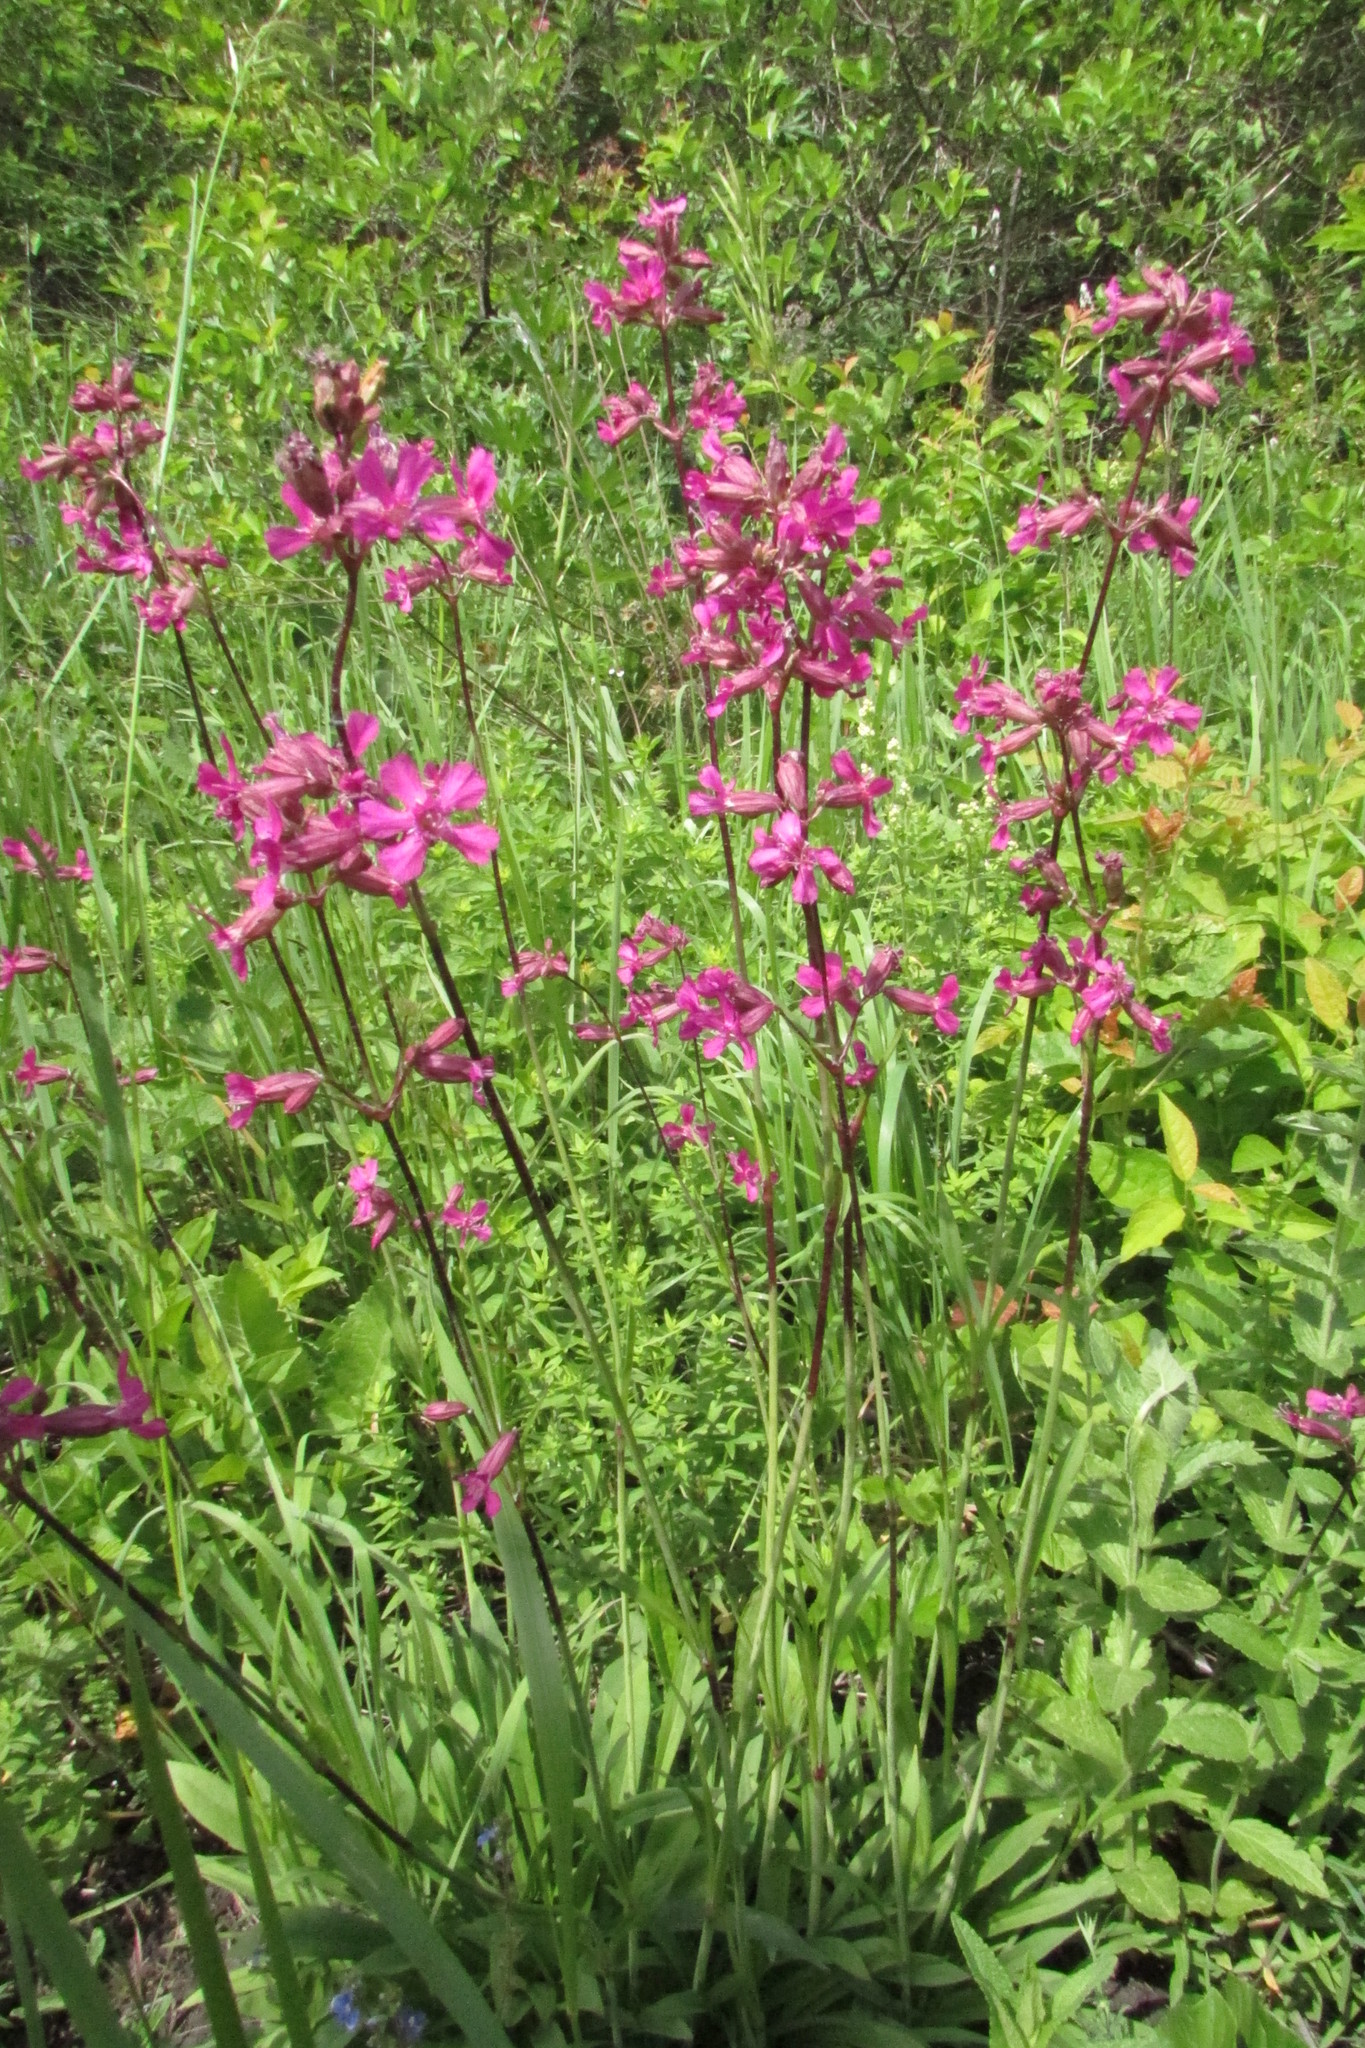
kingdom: Plantae
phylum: Tracheophyta
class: Magnoliopsida
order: Caryophyllales
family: Caryophyllaceae
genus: Viscaria
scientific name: Viscaria vulgaris
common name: Clammy campion
